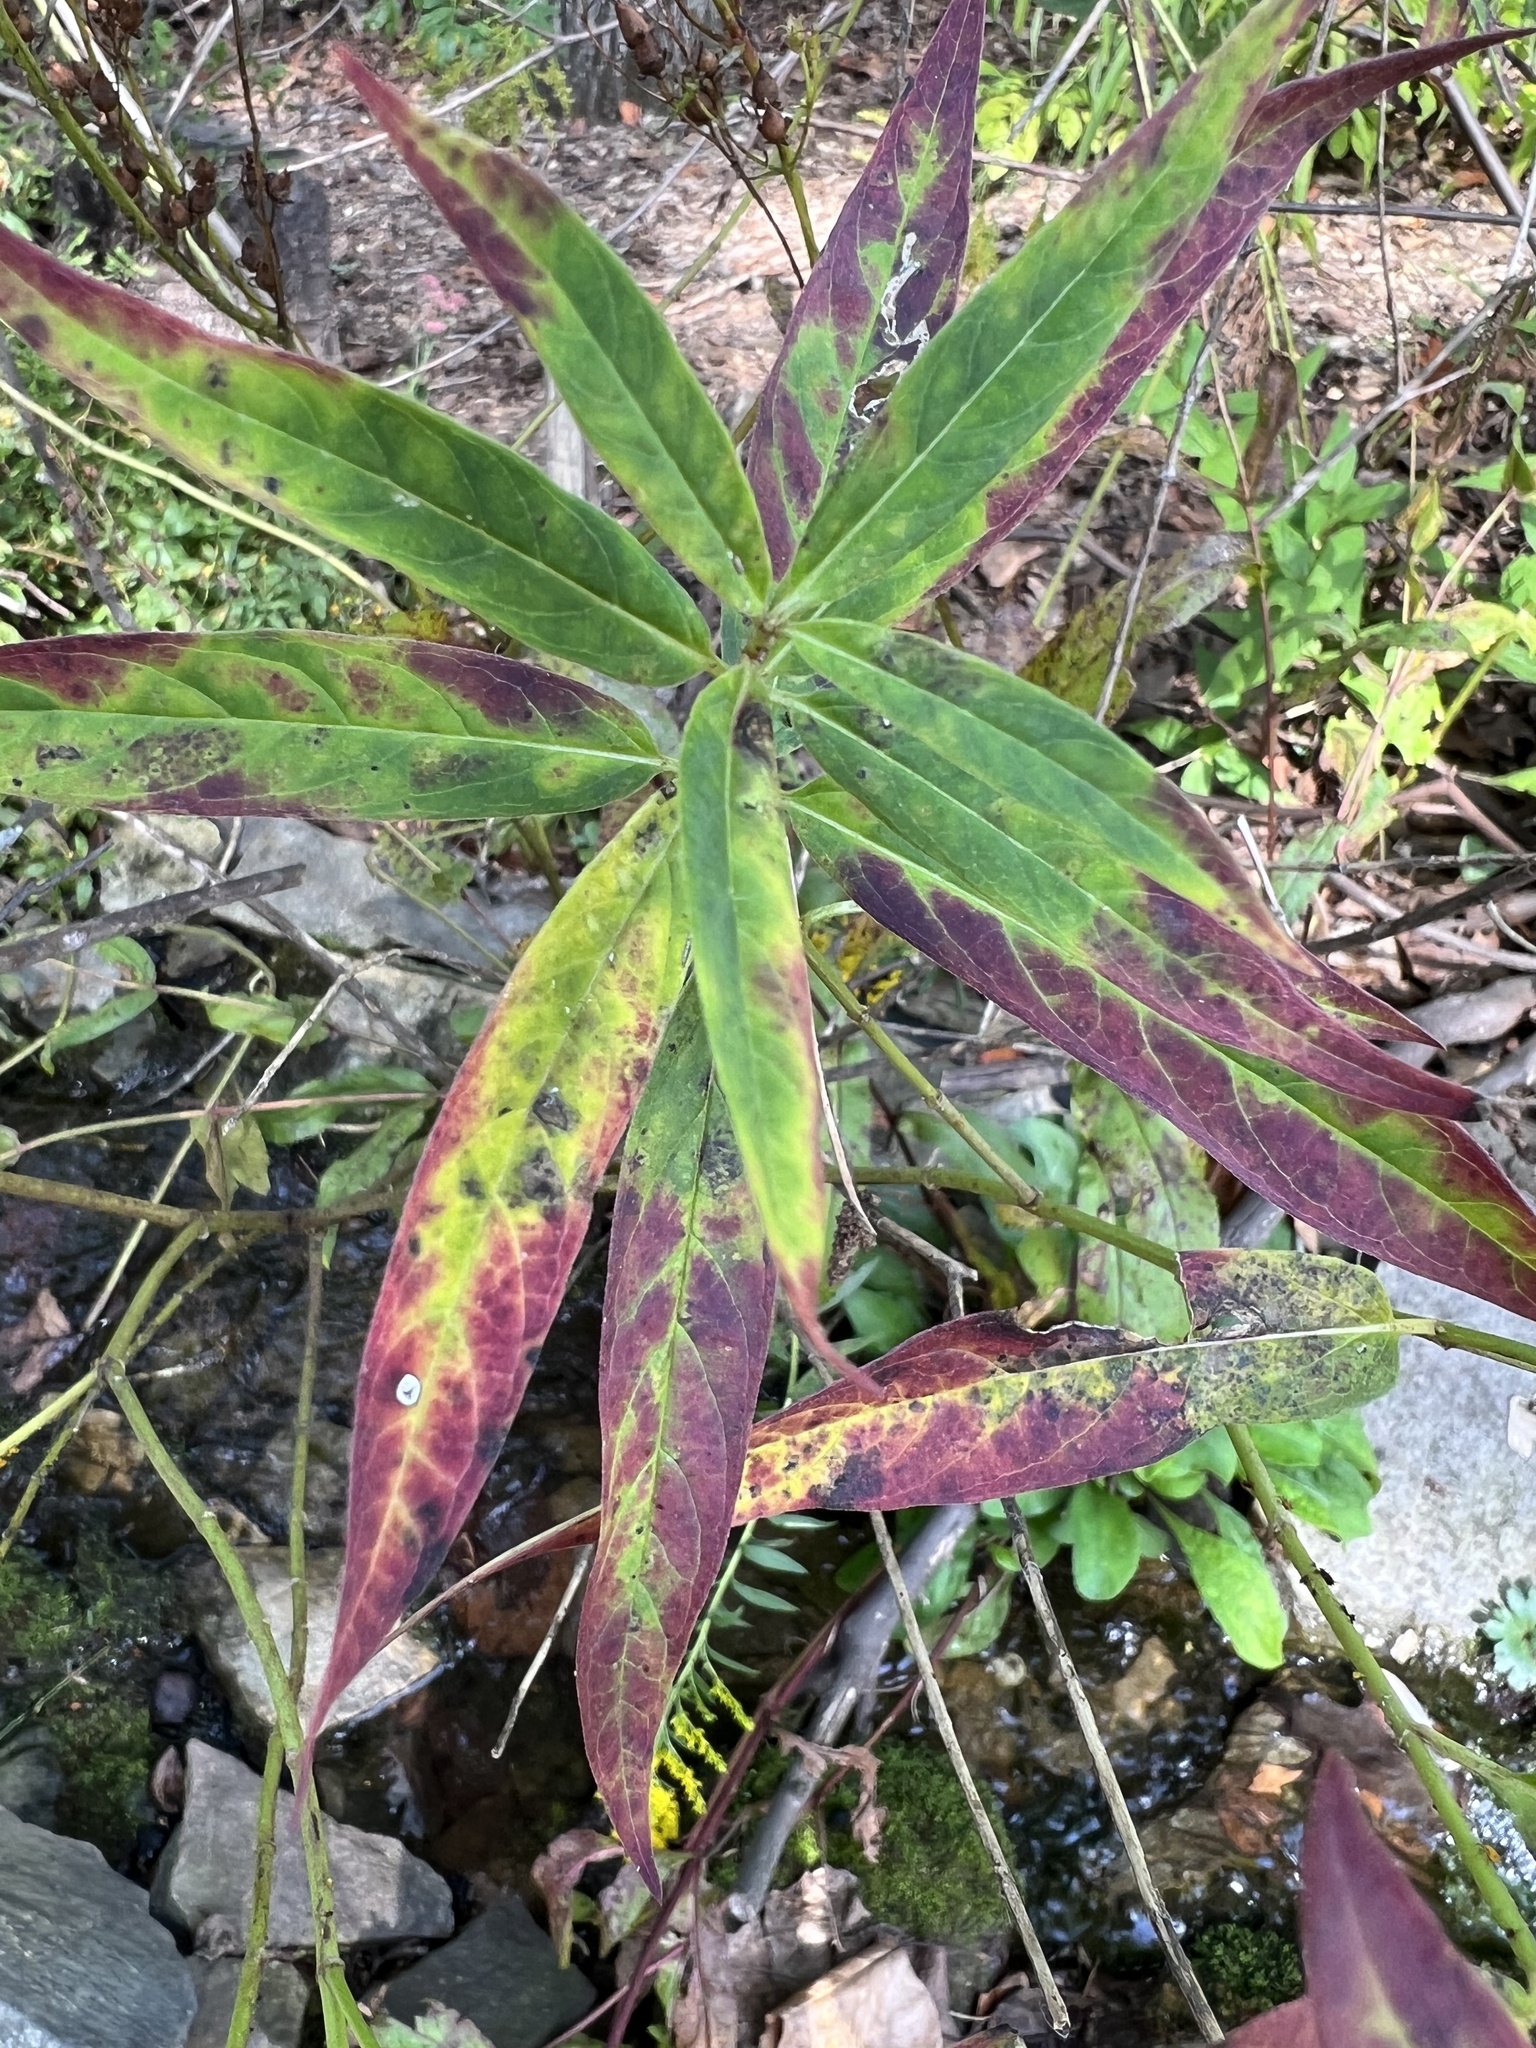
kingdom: Plantae
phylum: Tracheophyta
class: Magnoliopsida
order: Gentianales
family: Apocynaceae
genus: Asclepias
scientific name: Asclepias incarnata
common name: Swamp milkweed
